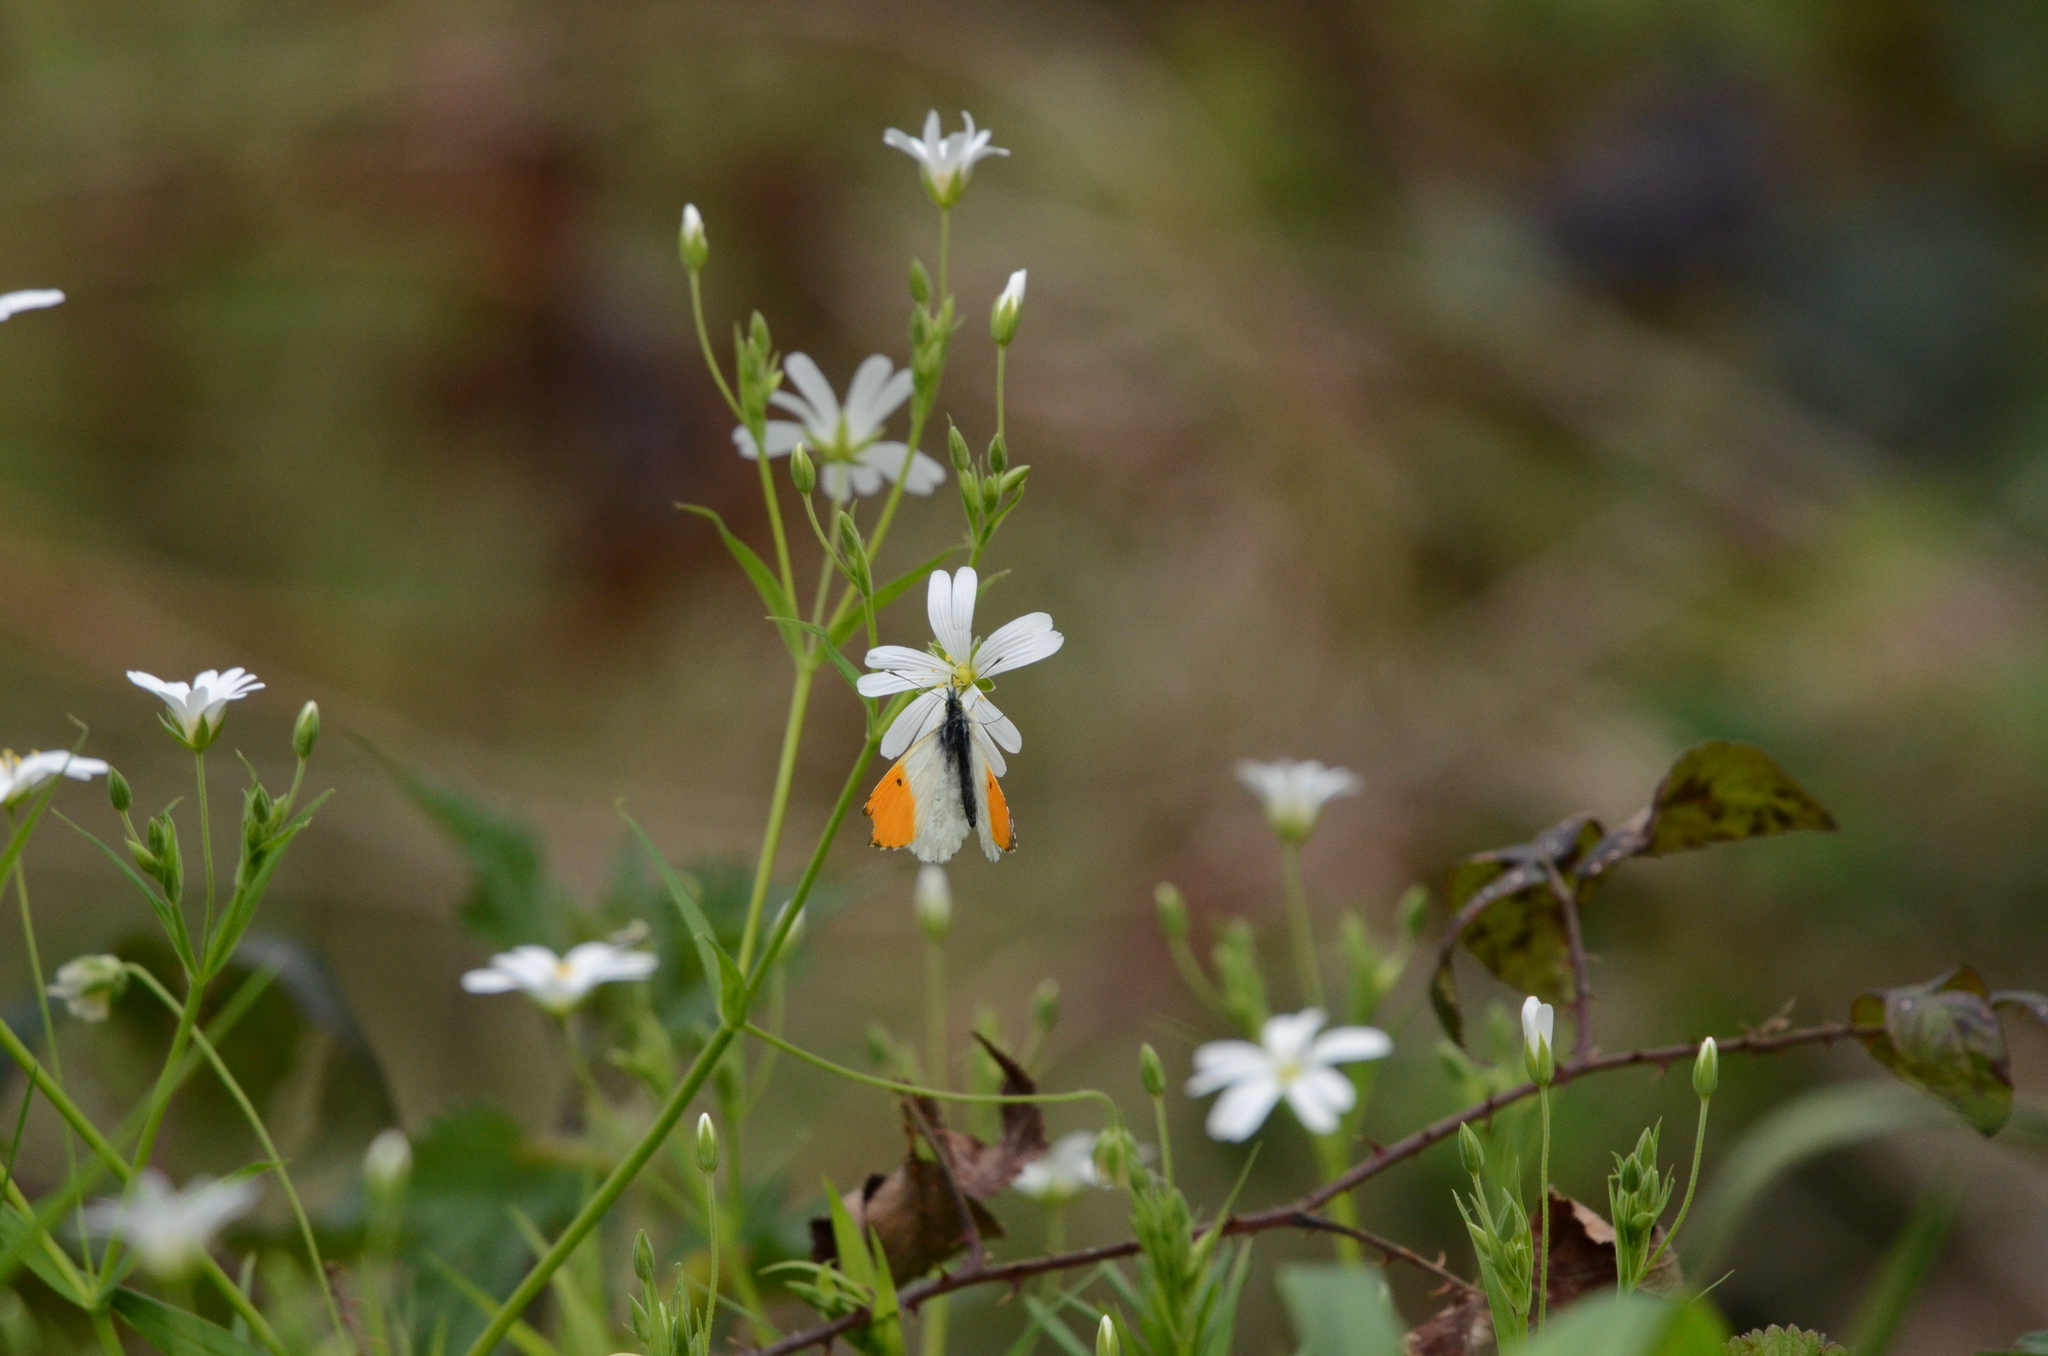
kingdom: Animalia
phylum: Arthropoda
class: Insecta
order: Lepidoptera
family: Pieridae
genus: Anthocharis
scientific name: Anthocharis cardamines
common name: Orange-tip
